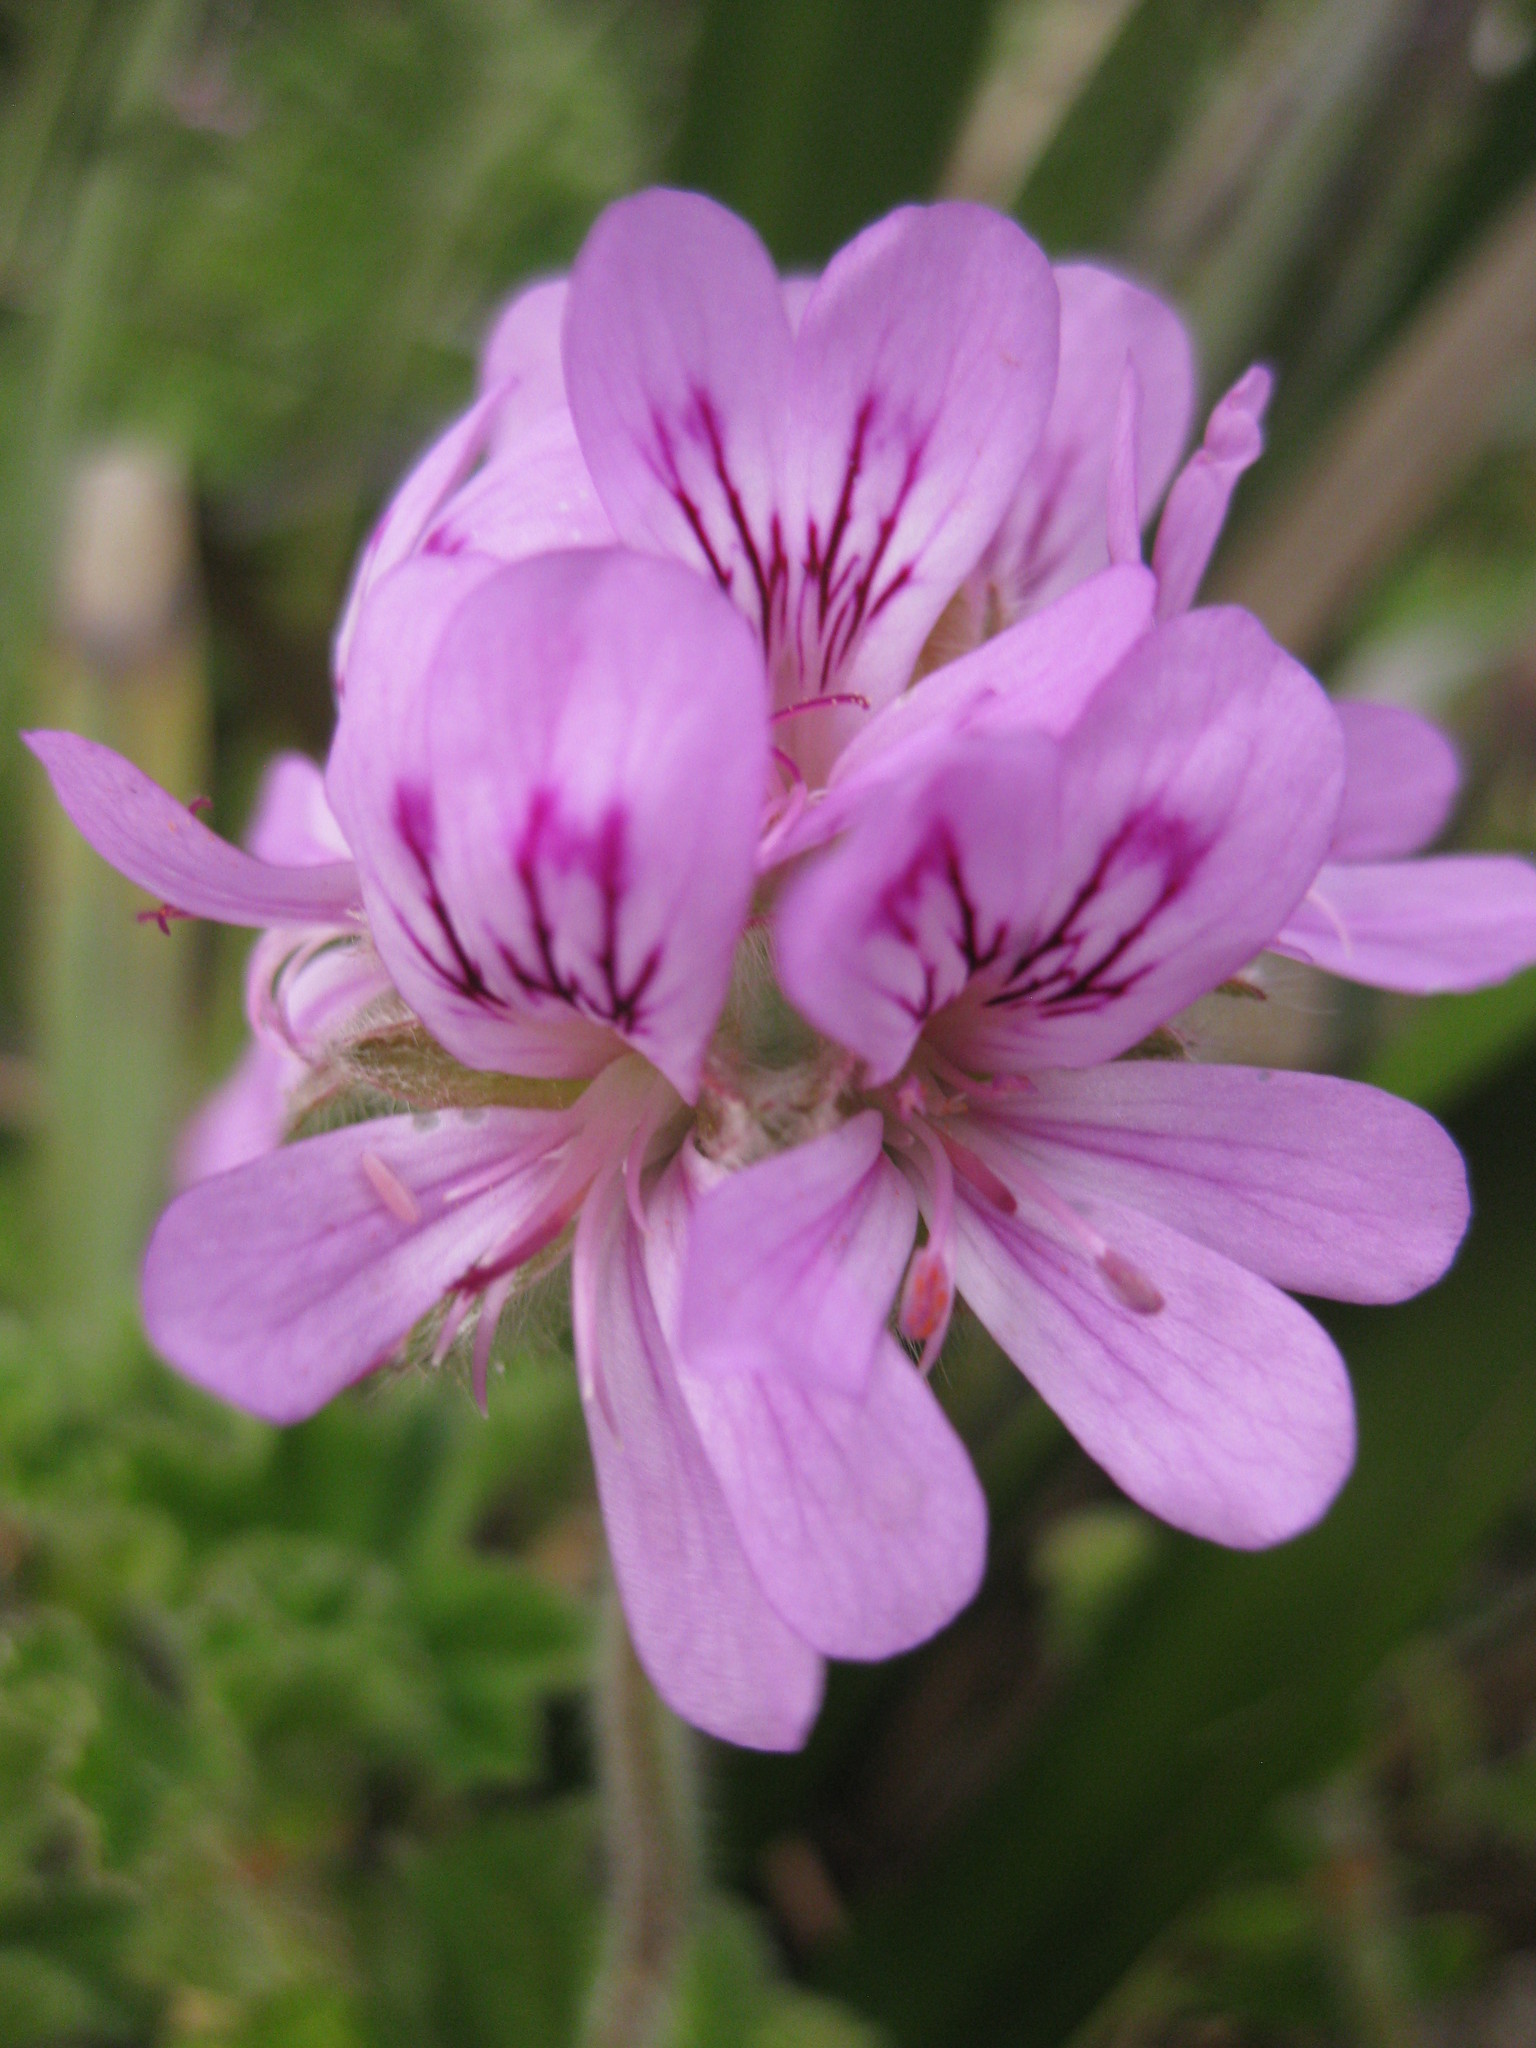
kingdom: Plantae
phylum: Tracheophyta
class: Magnoliopsida
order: Geraniales
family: Geraniaceae
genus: Pelargonium
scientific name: Pelargonium capitatum
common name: Rose scented geranium
